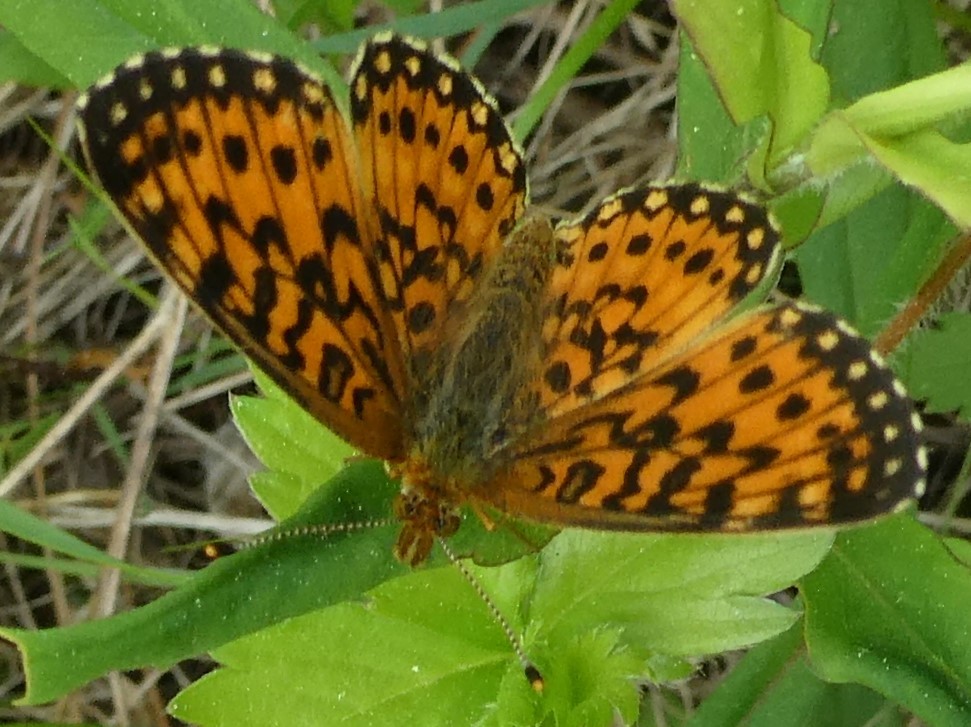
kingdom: Animalia
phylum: Arthropoda
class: Insecta
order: Lepidoptera
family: Nymphalidae
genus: Boloria
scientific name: Boloria
